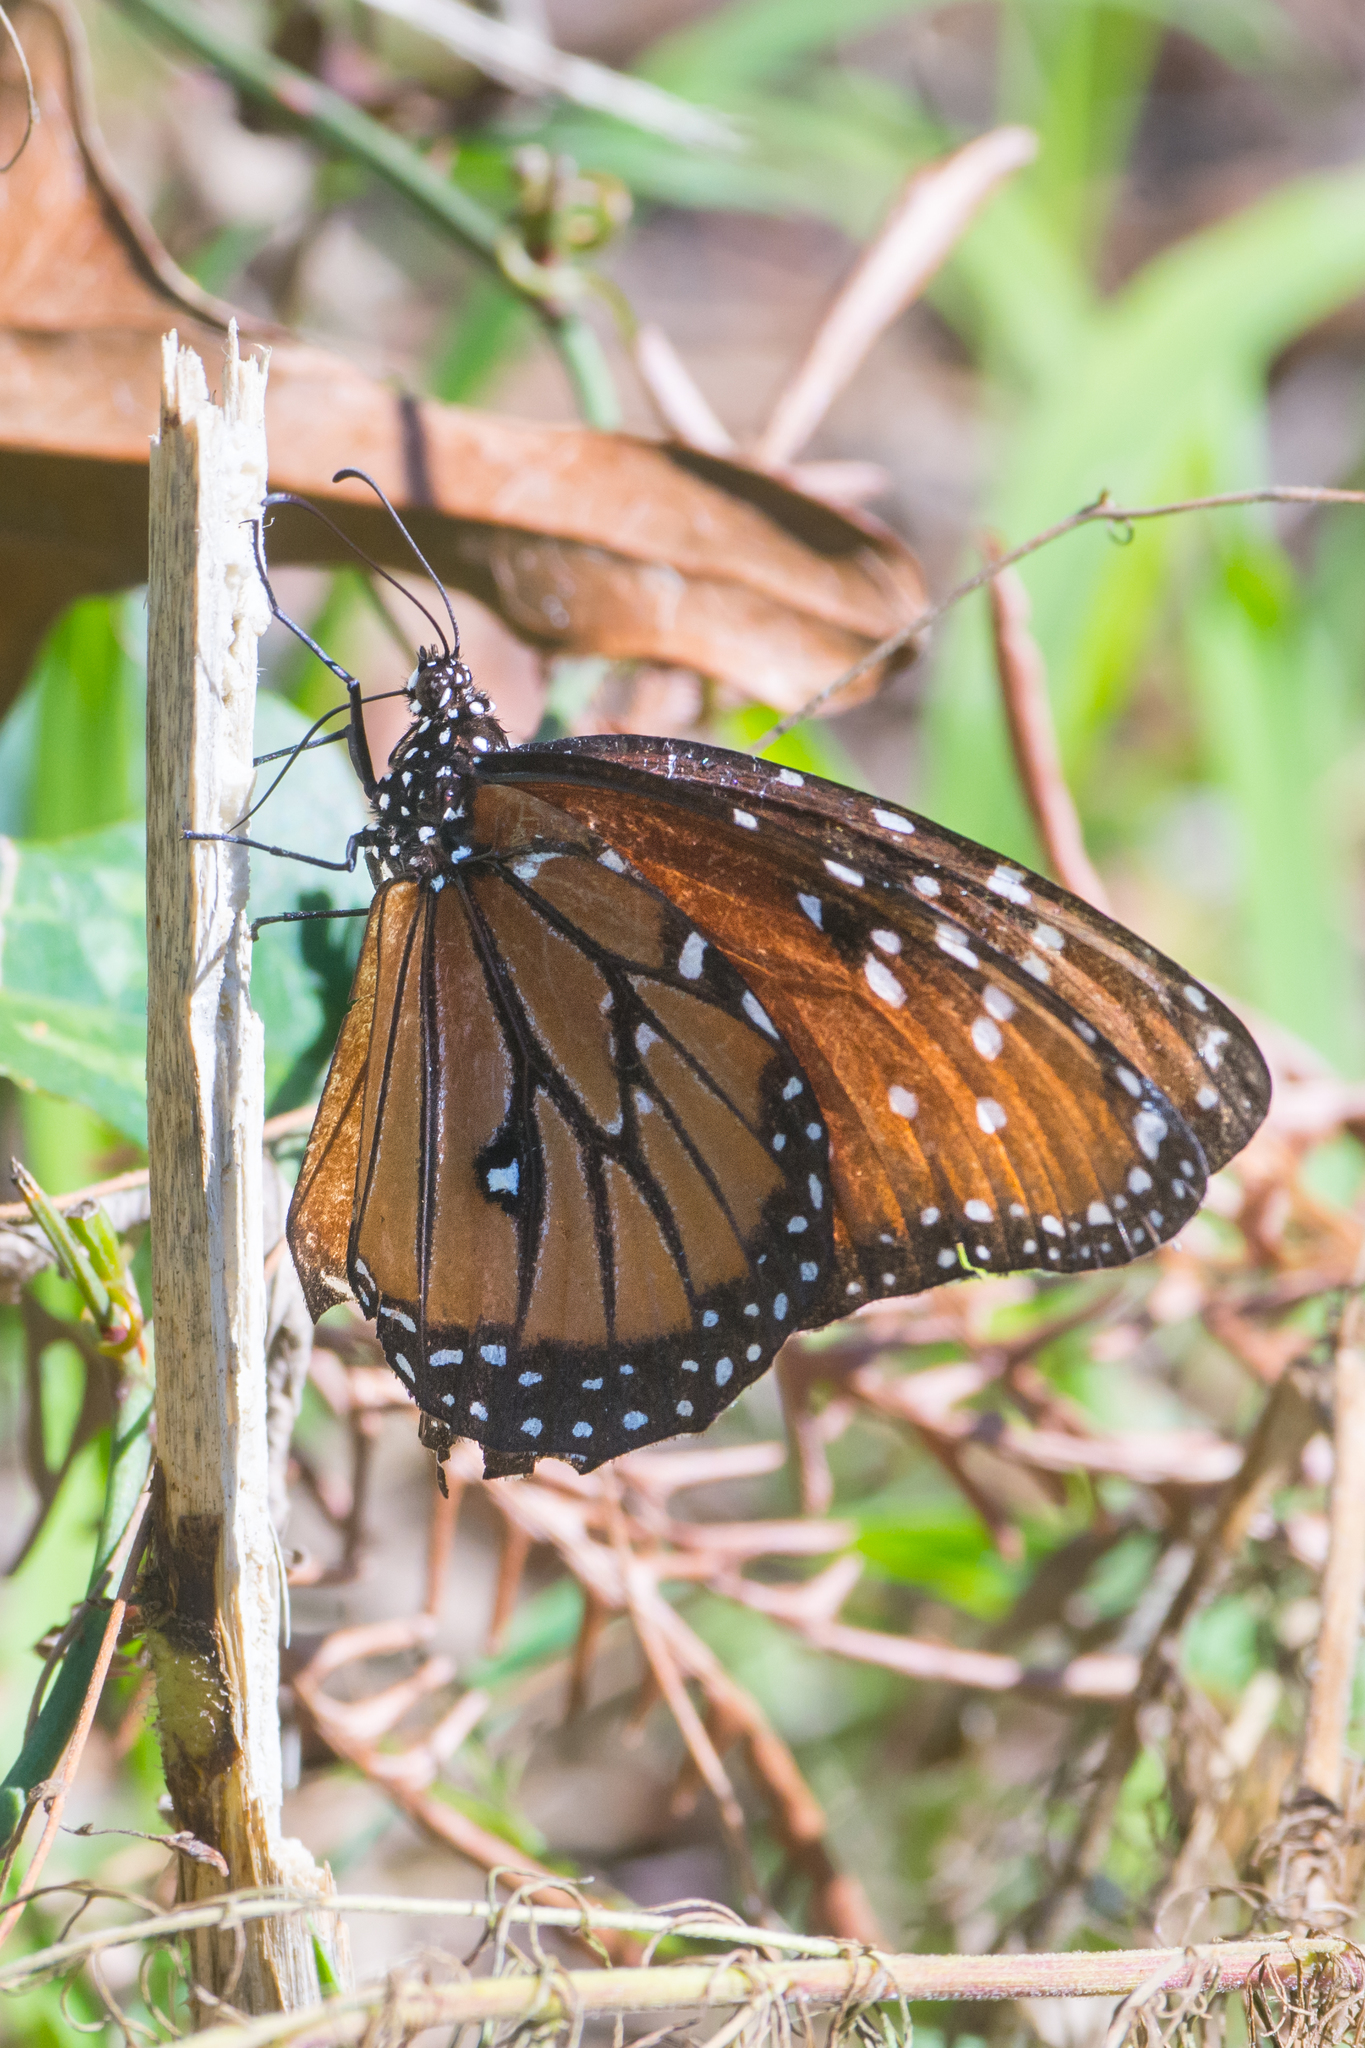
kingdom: Animalia
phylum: Arthropoda
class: Insecta
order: Lepidoptera
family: Nymphalidae
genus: Danaus
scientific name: Danaus gilippus
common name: Queen
